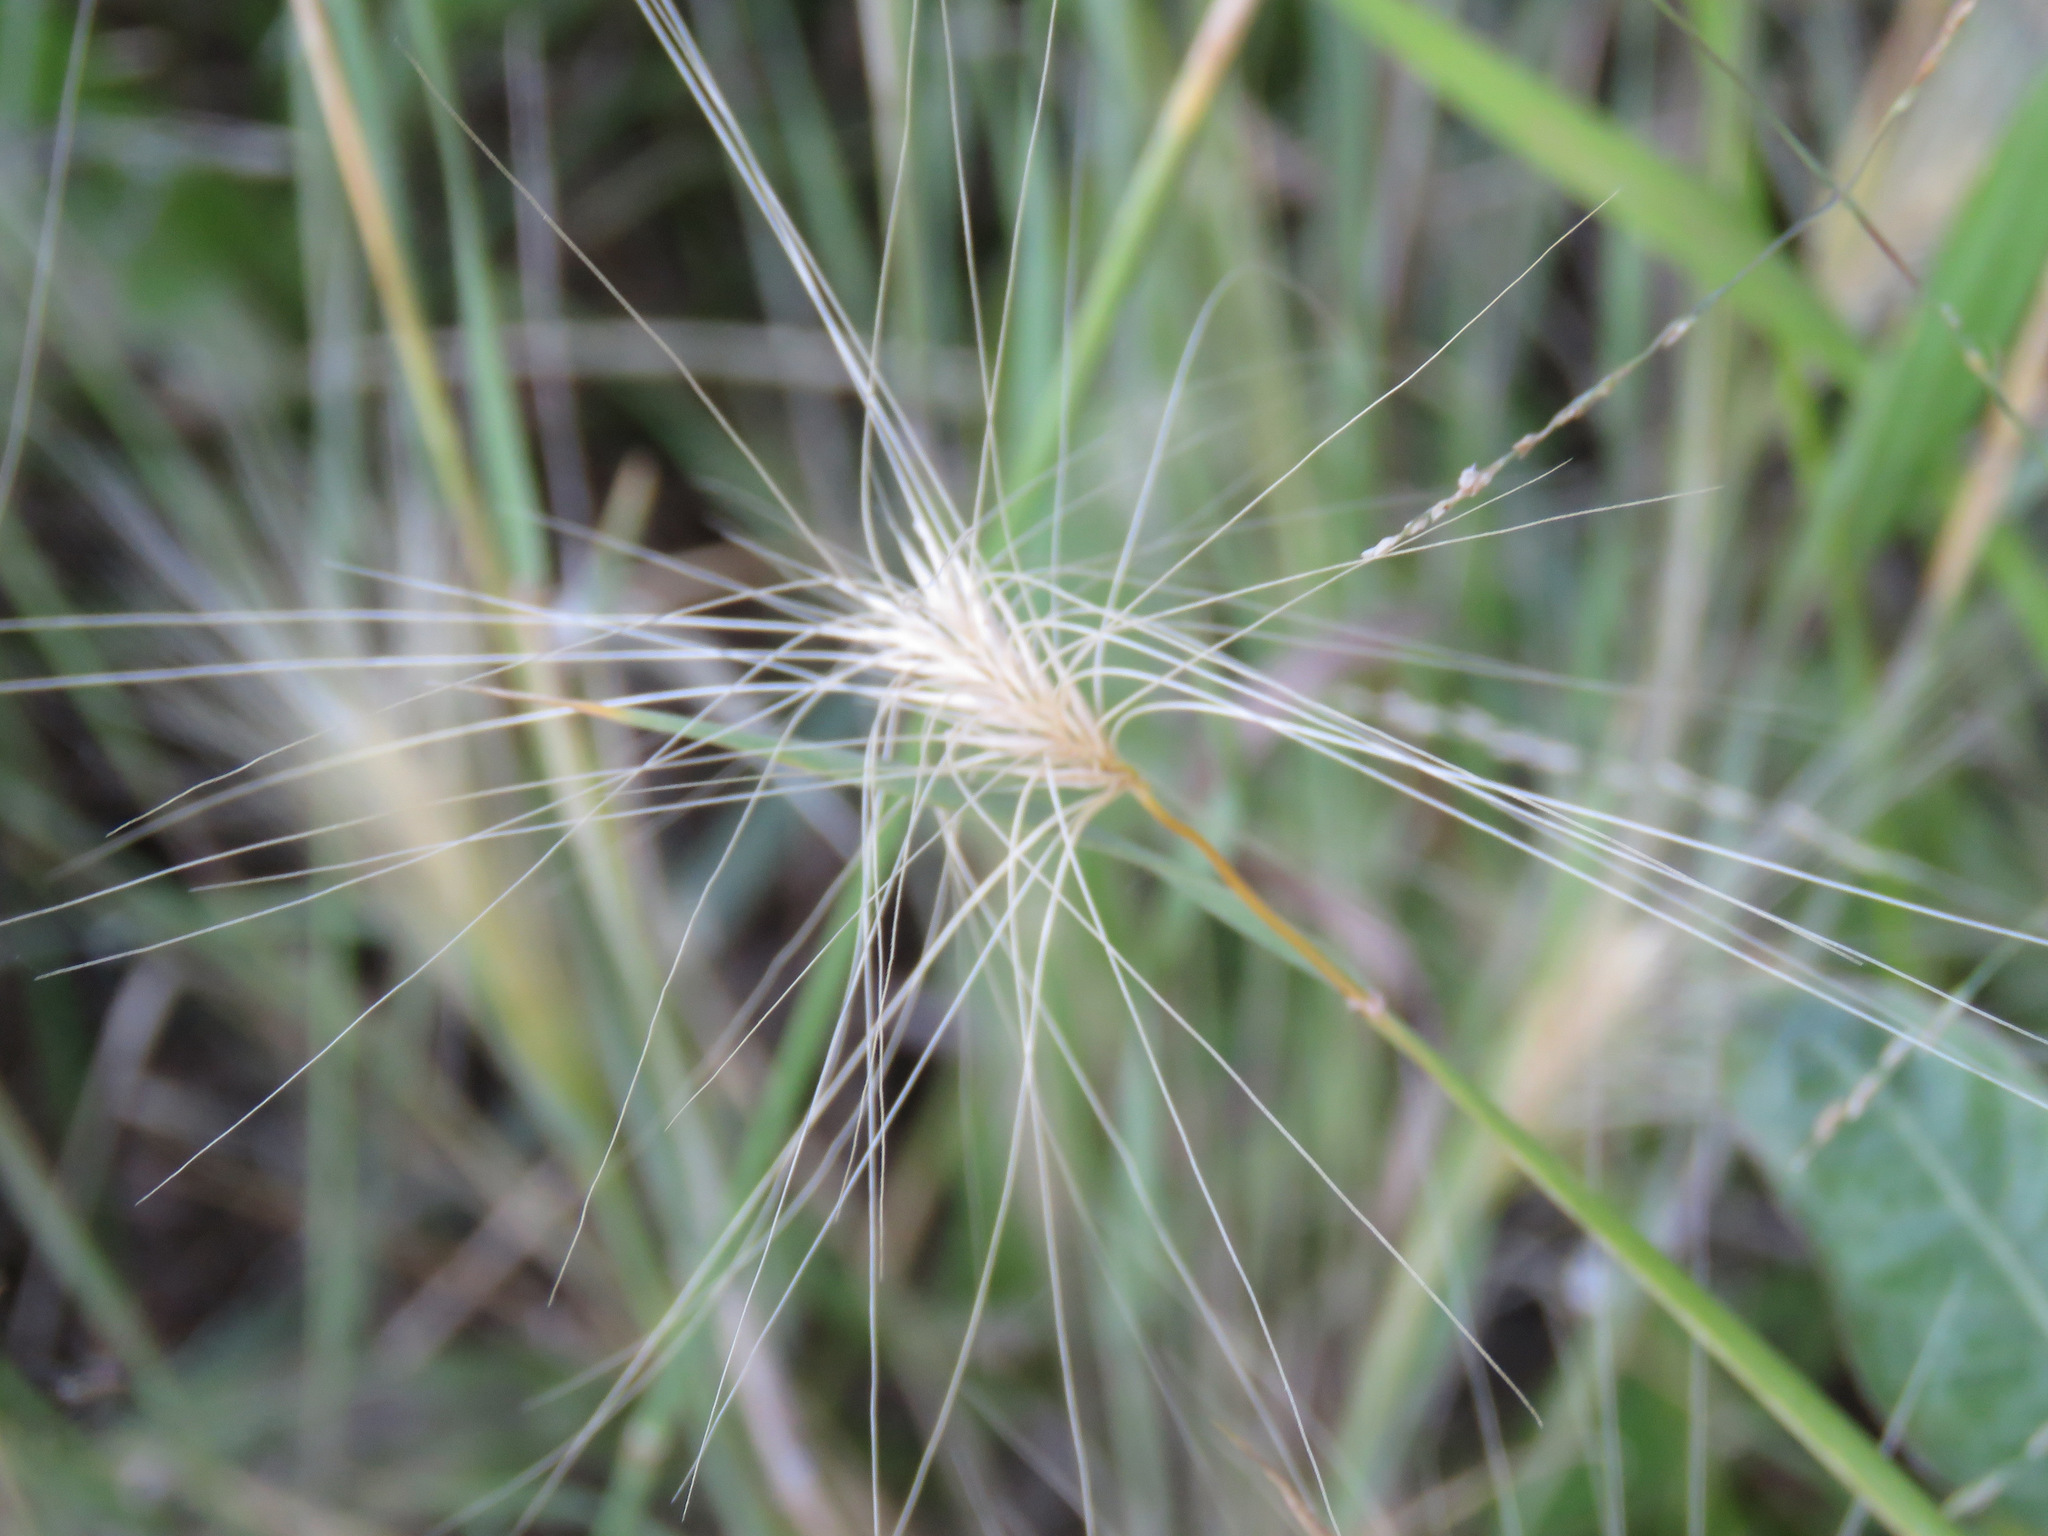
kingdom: Plantae
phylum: Tracheophyta
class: Liliopsida
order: Poales
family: Poaceae
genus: Hordeum
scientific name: Hordeum jubatum
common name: Foxtail barley
